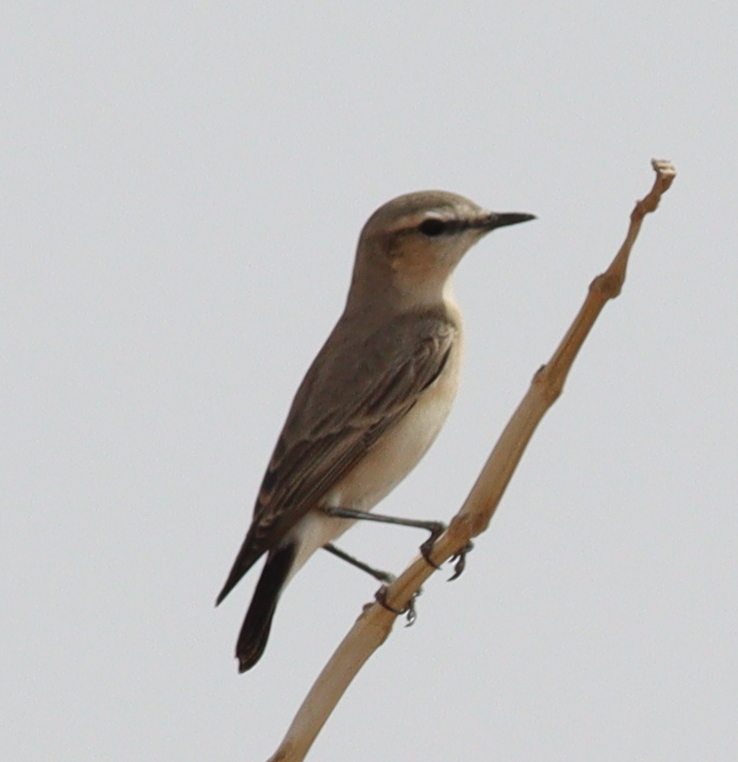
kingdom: Animalia
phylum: Chordata
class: Aves
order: Passeriformes
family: Muscicapidae
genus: Oenanthe
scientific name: Oenanthe isabellina
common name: Isabelline wheatear
